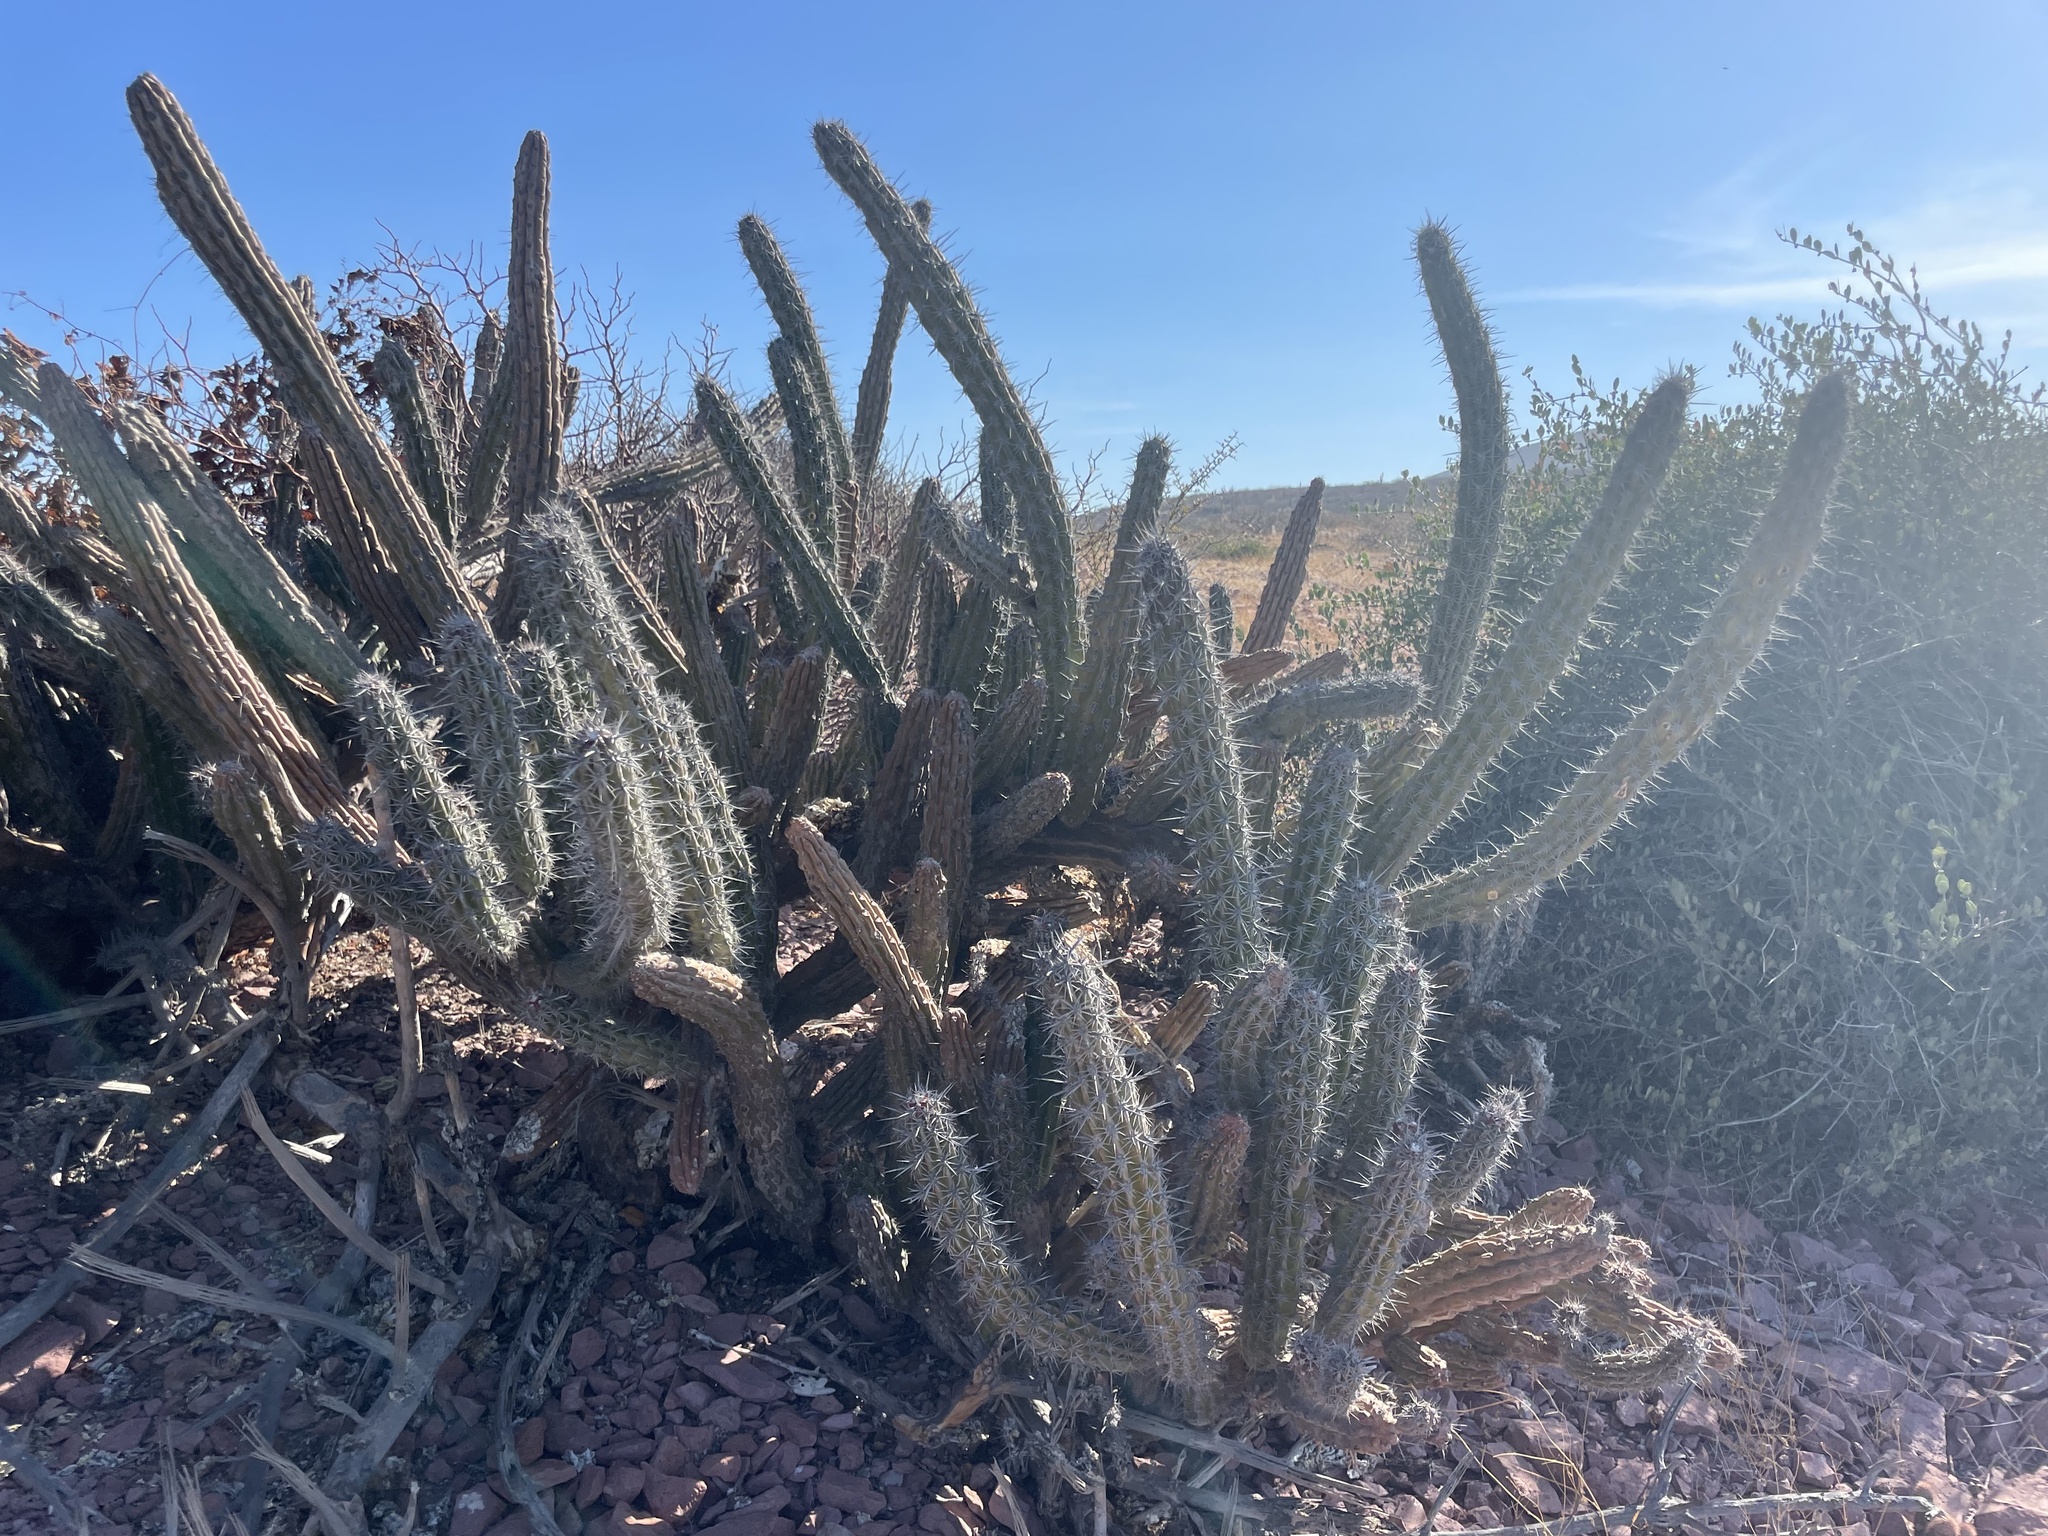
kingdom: Plantae
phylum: Tracheophyta
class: Magnoliopsida
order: Caryophyllales
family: Cactaceae
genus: Stenocereus
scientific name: Stenocereus gummosus
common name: Dagger cactus
